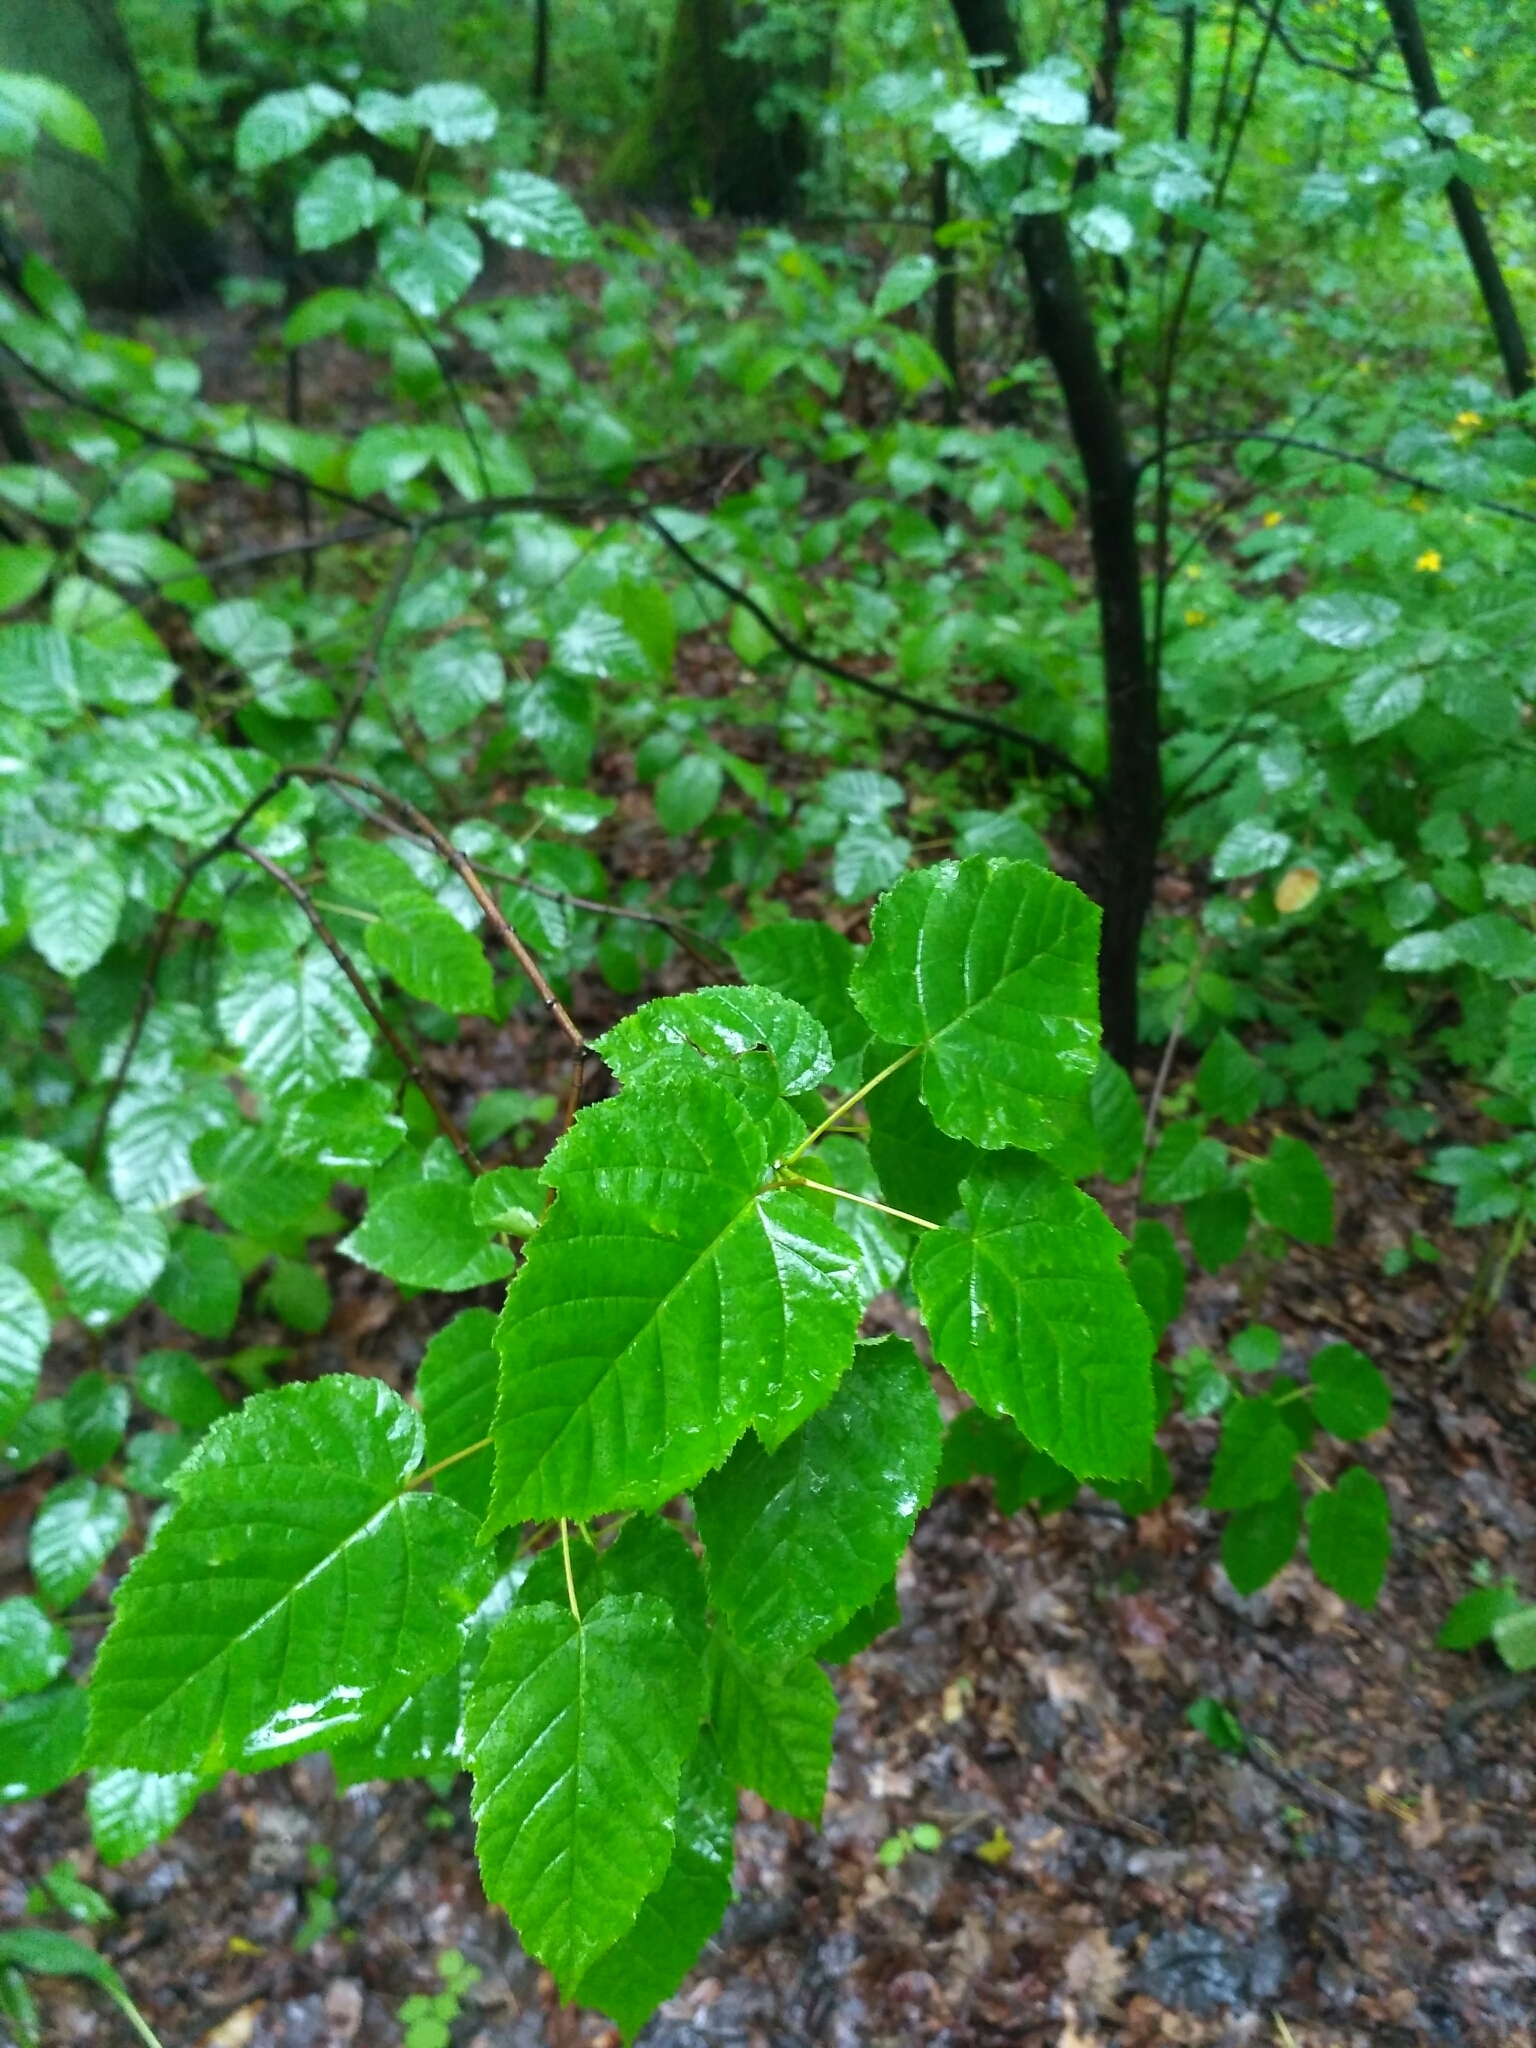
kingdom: Plantae
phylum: Tracheophyta
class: Magnoliopsida
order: Sapindales
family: Sapindaceae
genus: Acer
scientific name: Acer tataricum
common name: Tartar maple
